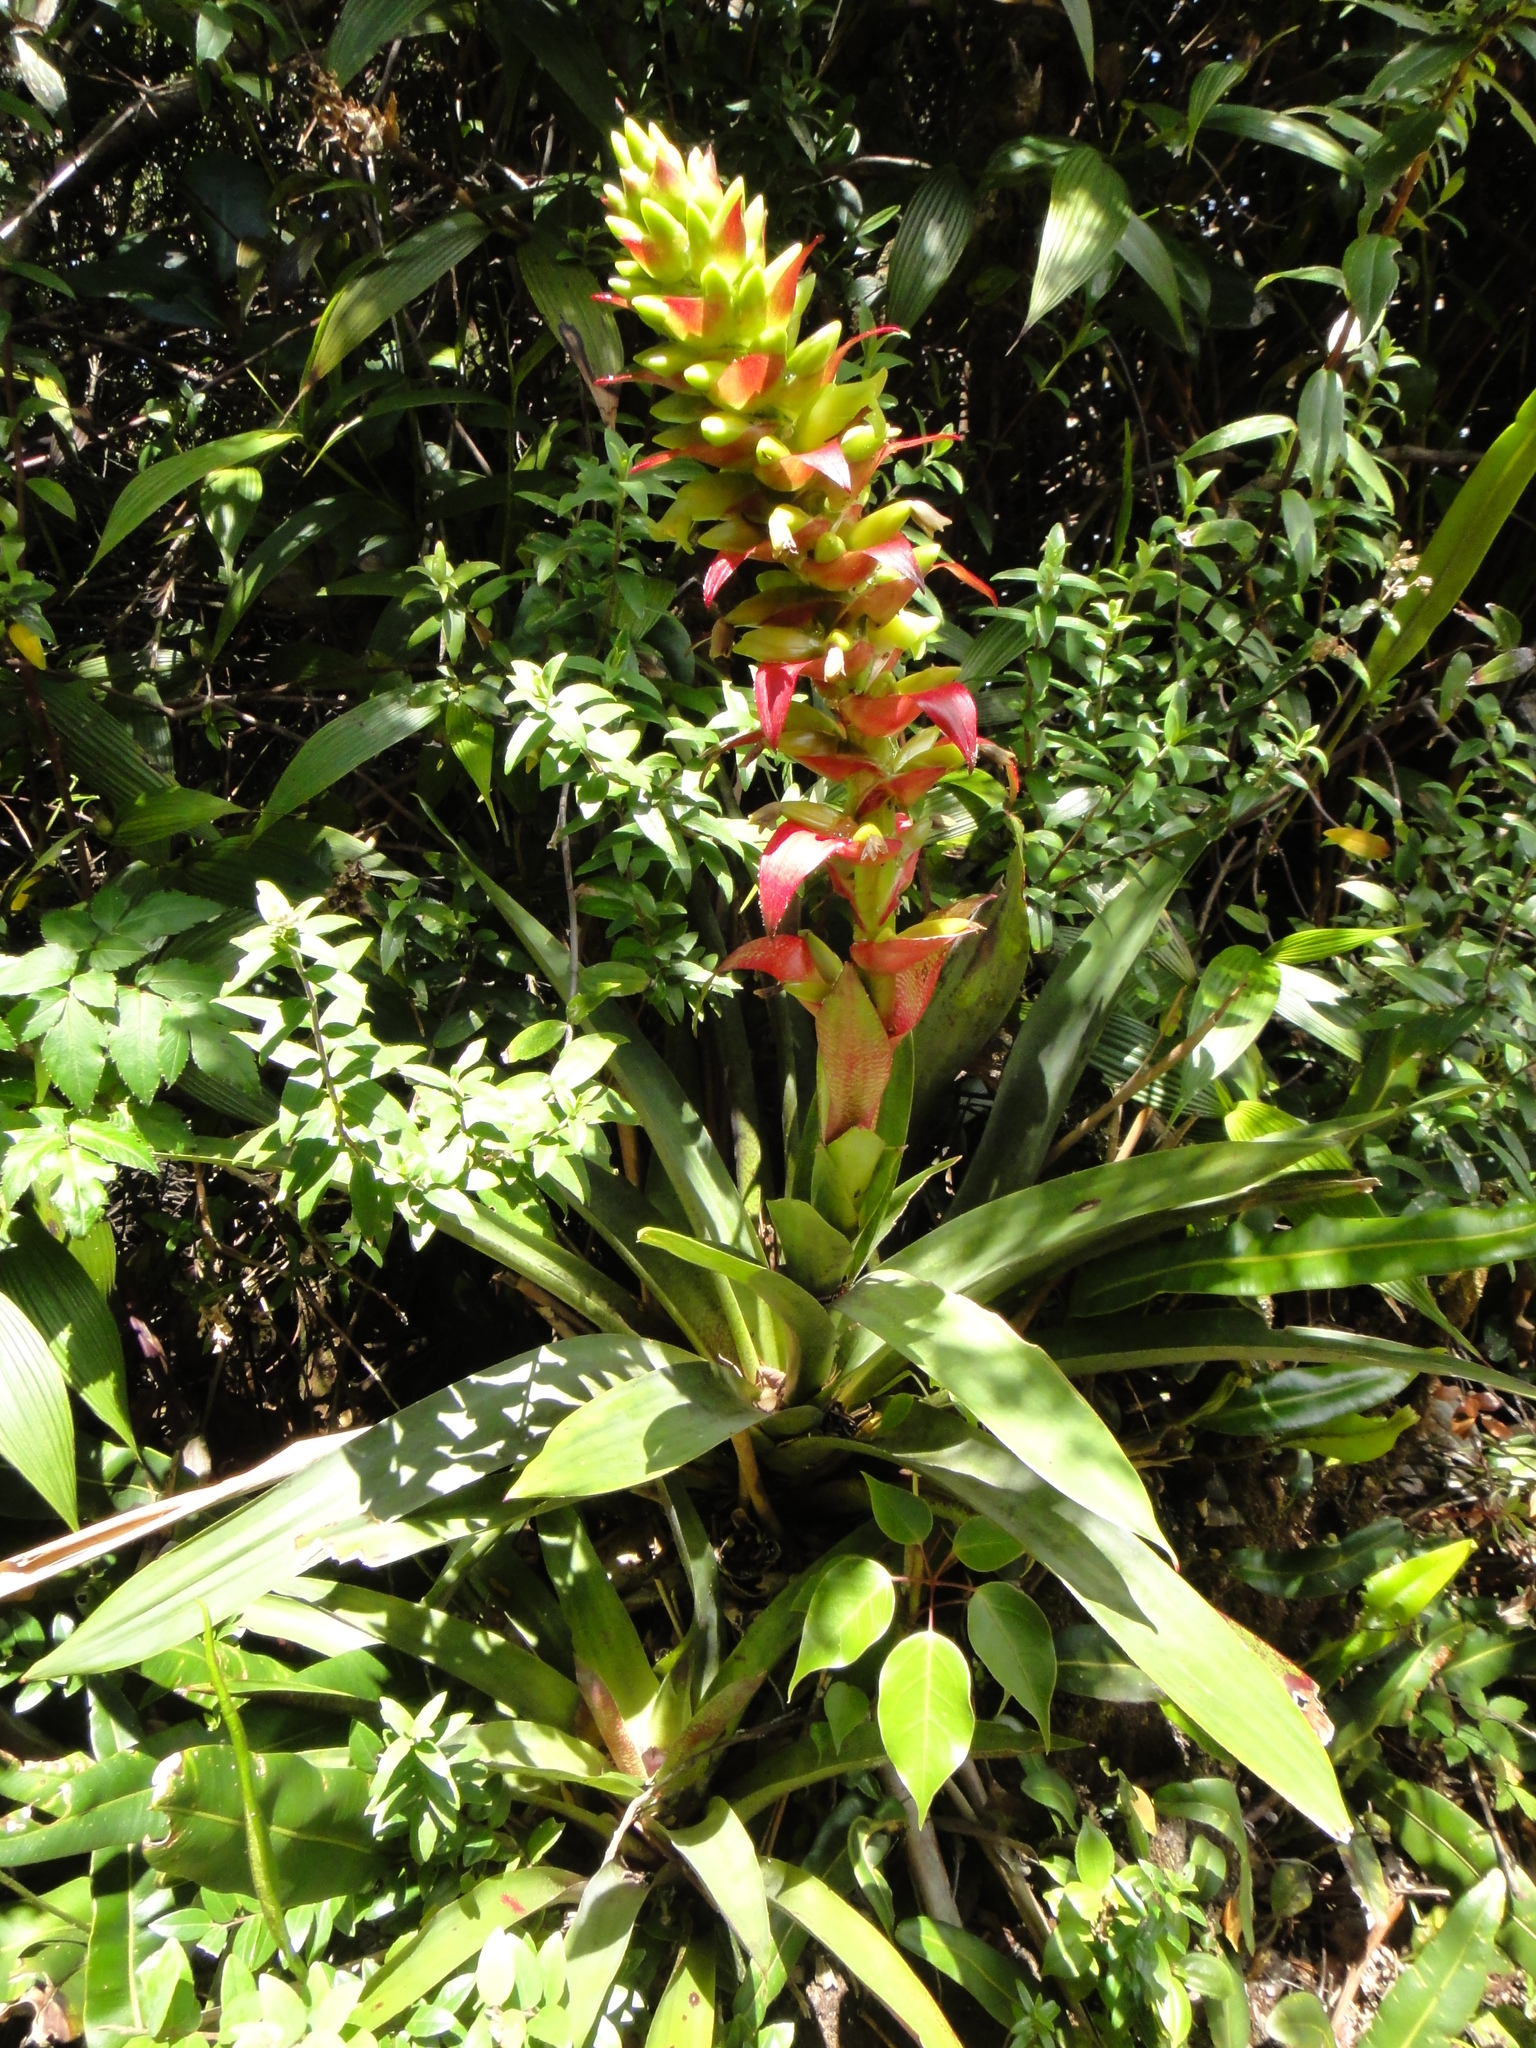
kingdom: Plantae
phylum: Tracheophyta
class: Liliopsida
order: Poales
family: Bromeliaceae
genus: Werauhia
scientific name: Werauhia ororiensis
